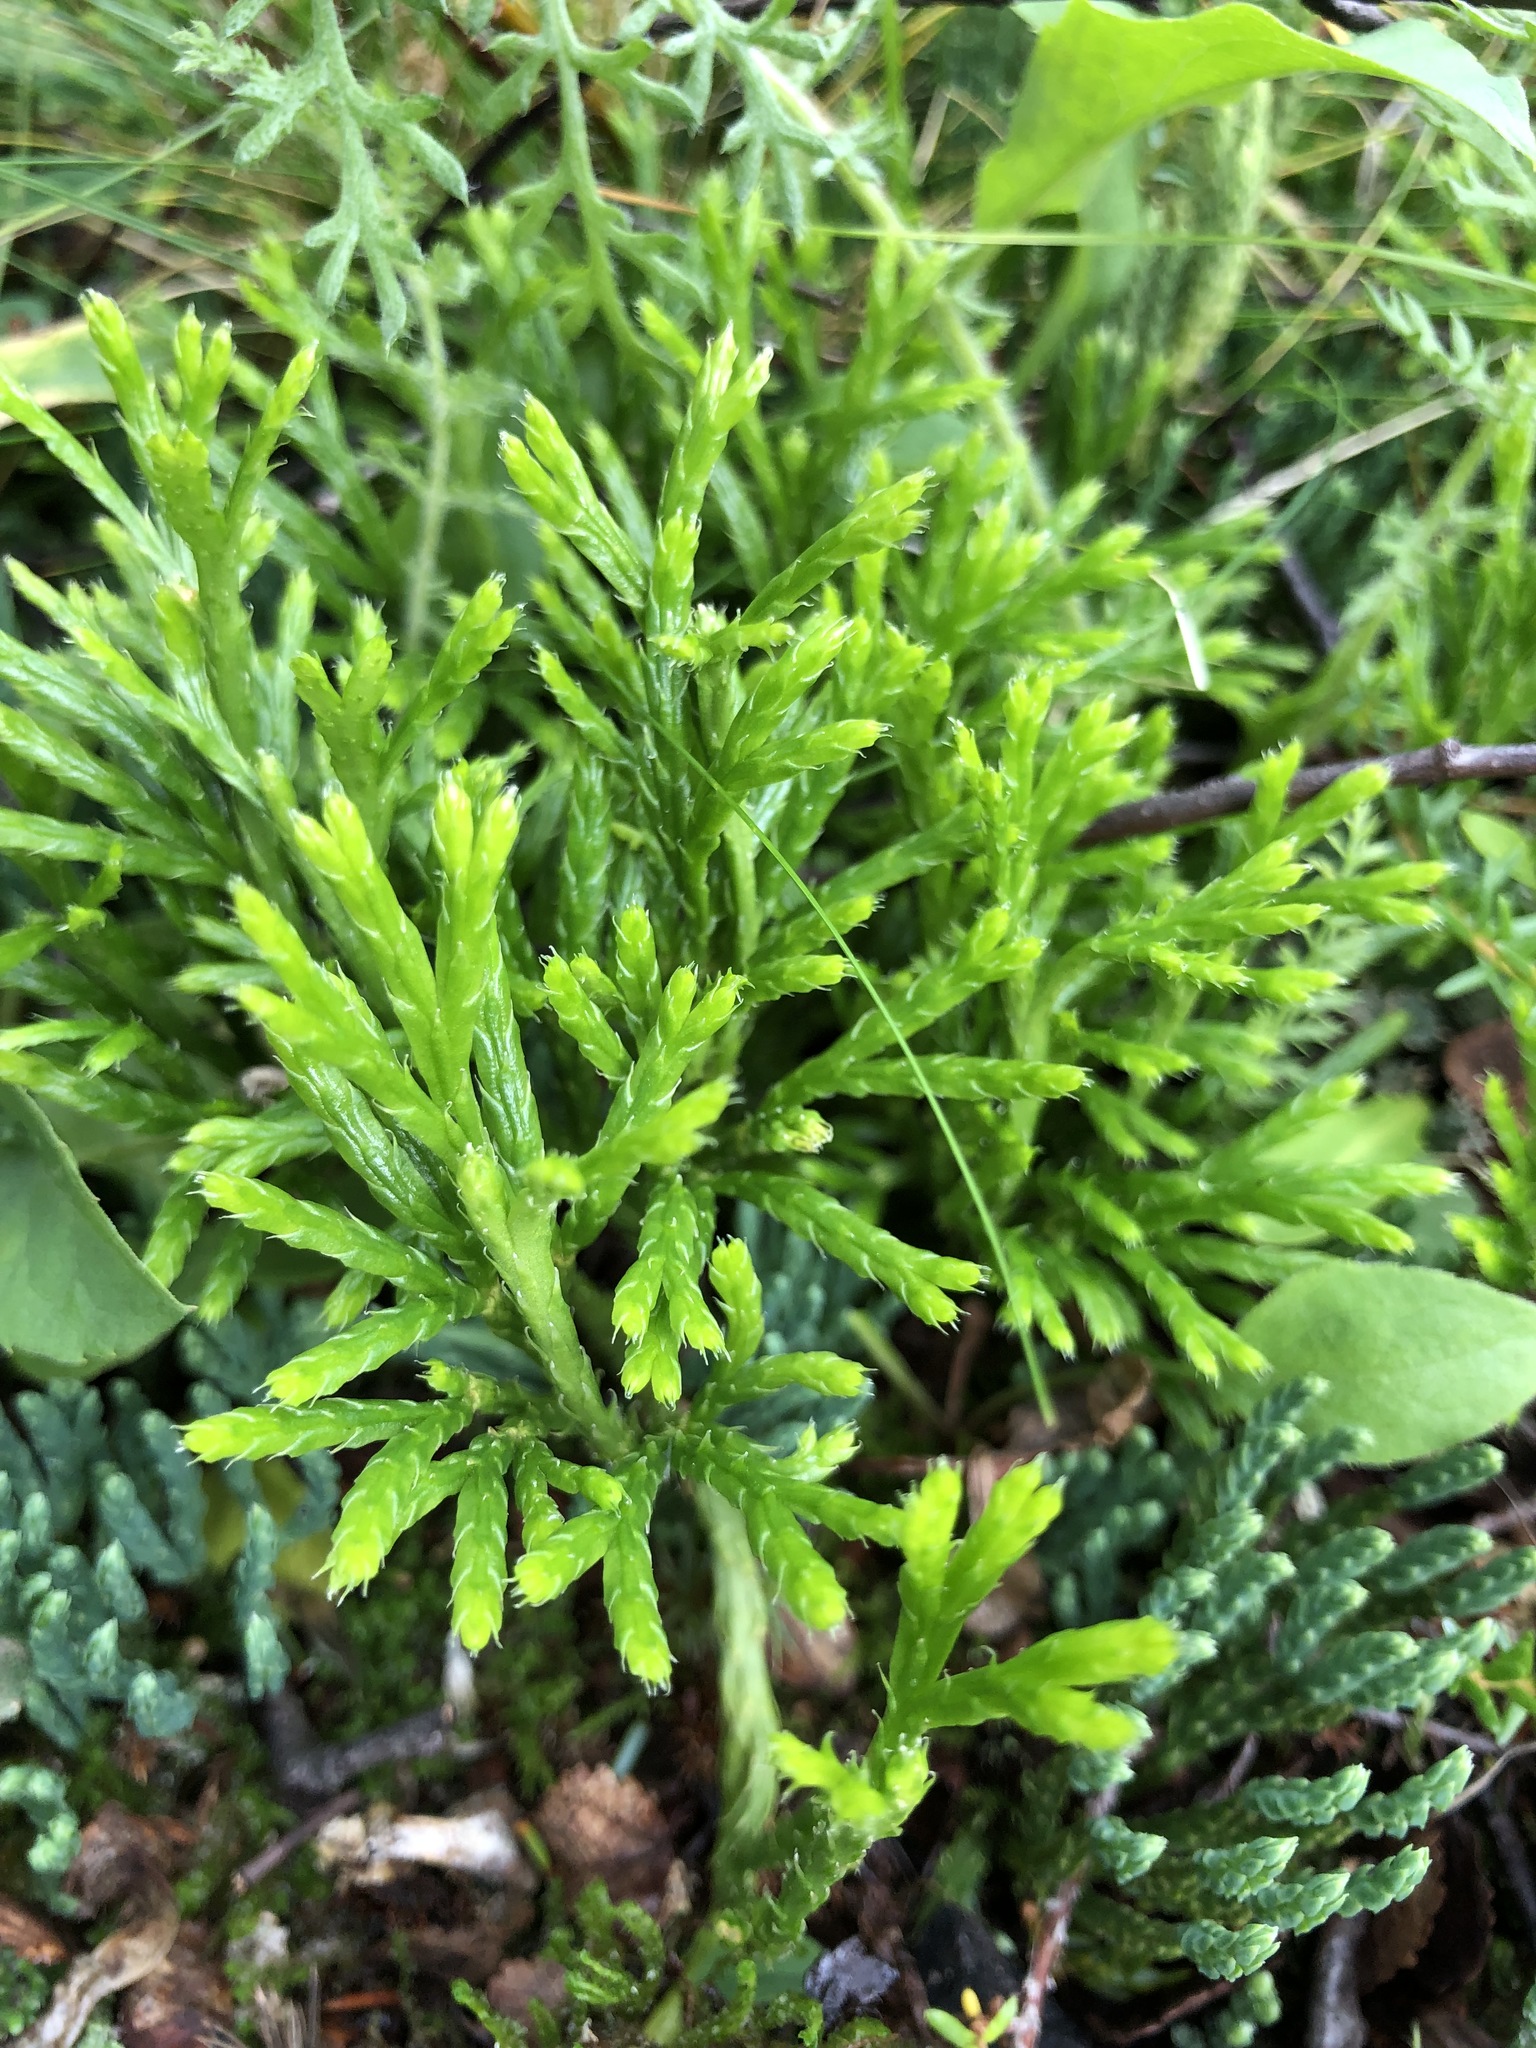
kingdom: Plantae
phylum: Tracheophyta
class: Lycopodiopsida
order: Lycopodiales
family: Lycopodiaceae
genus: Diphasiastrum
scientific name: Diphasiastrum complanatum
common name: Northern running-pine
